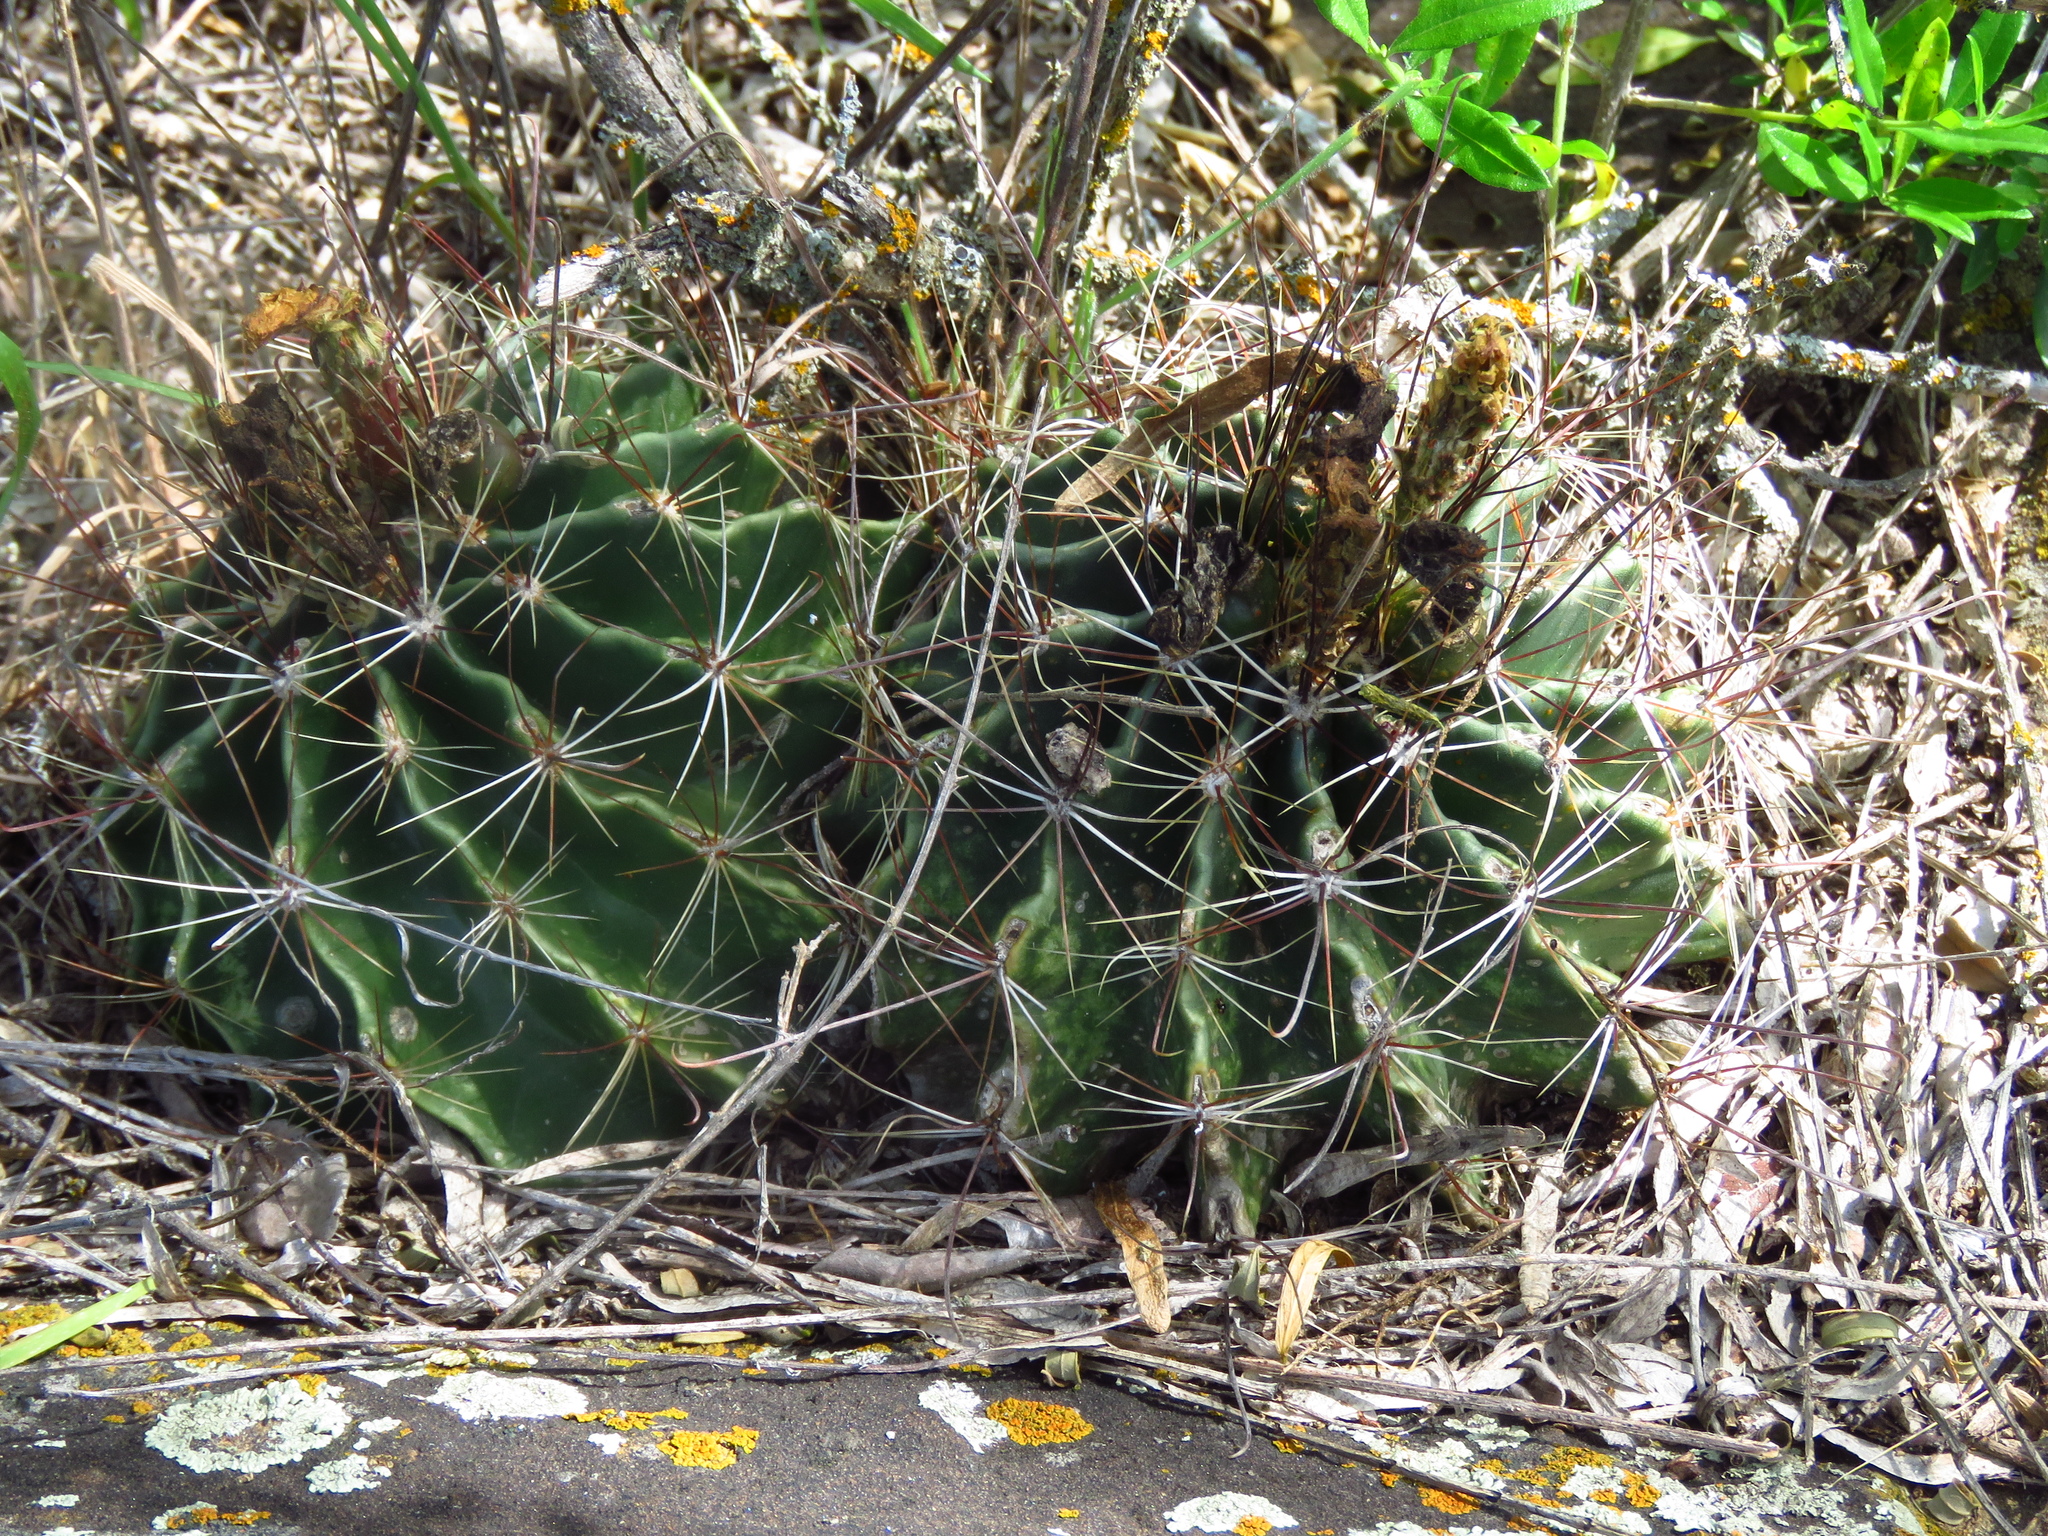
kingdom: Plantae
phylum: Tracheophyta
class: Magnoliopsida
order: Caryophyllales
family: Cactaceae
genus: Thelocactus
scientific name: Thelocactus setispinus
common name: Miniature barrel cactus
